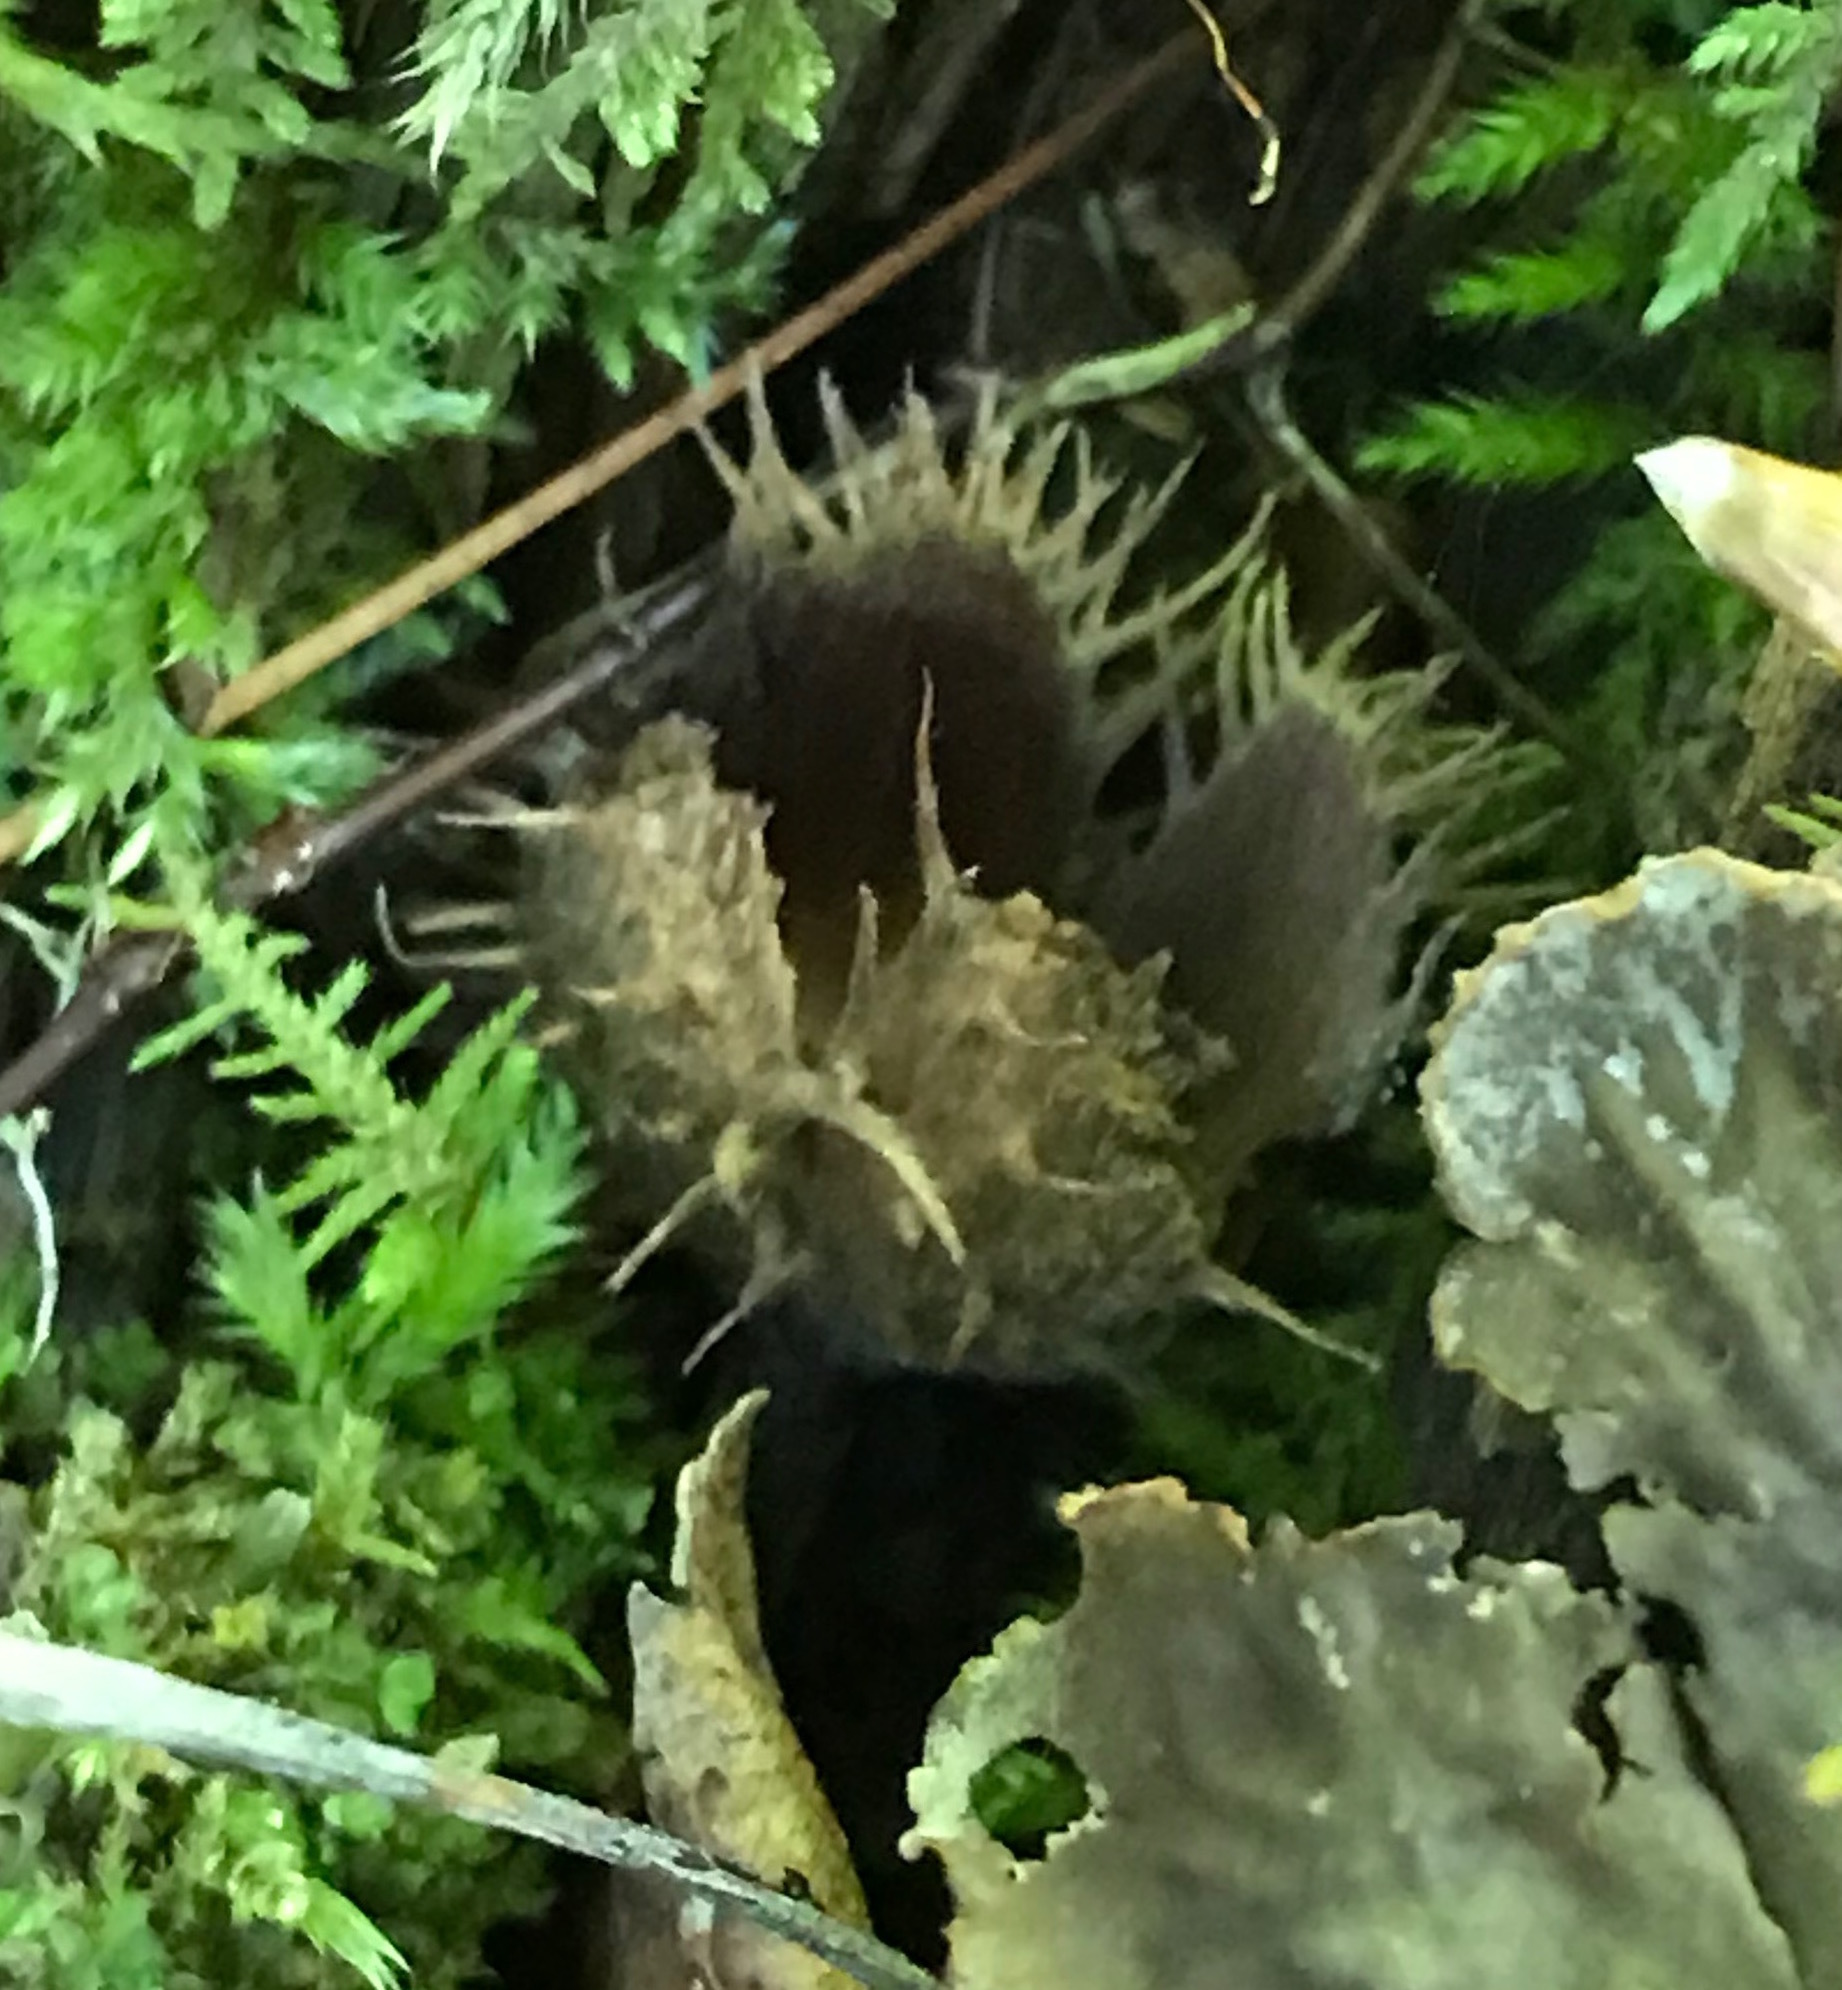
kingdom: Plantae
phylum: Tracheophyta
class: Magnoliopsida
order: Fagales
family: Fagaceae
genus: Fagus
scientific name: Fagus grandifolia
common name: American beech
